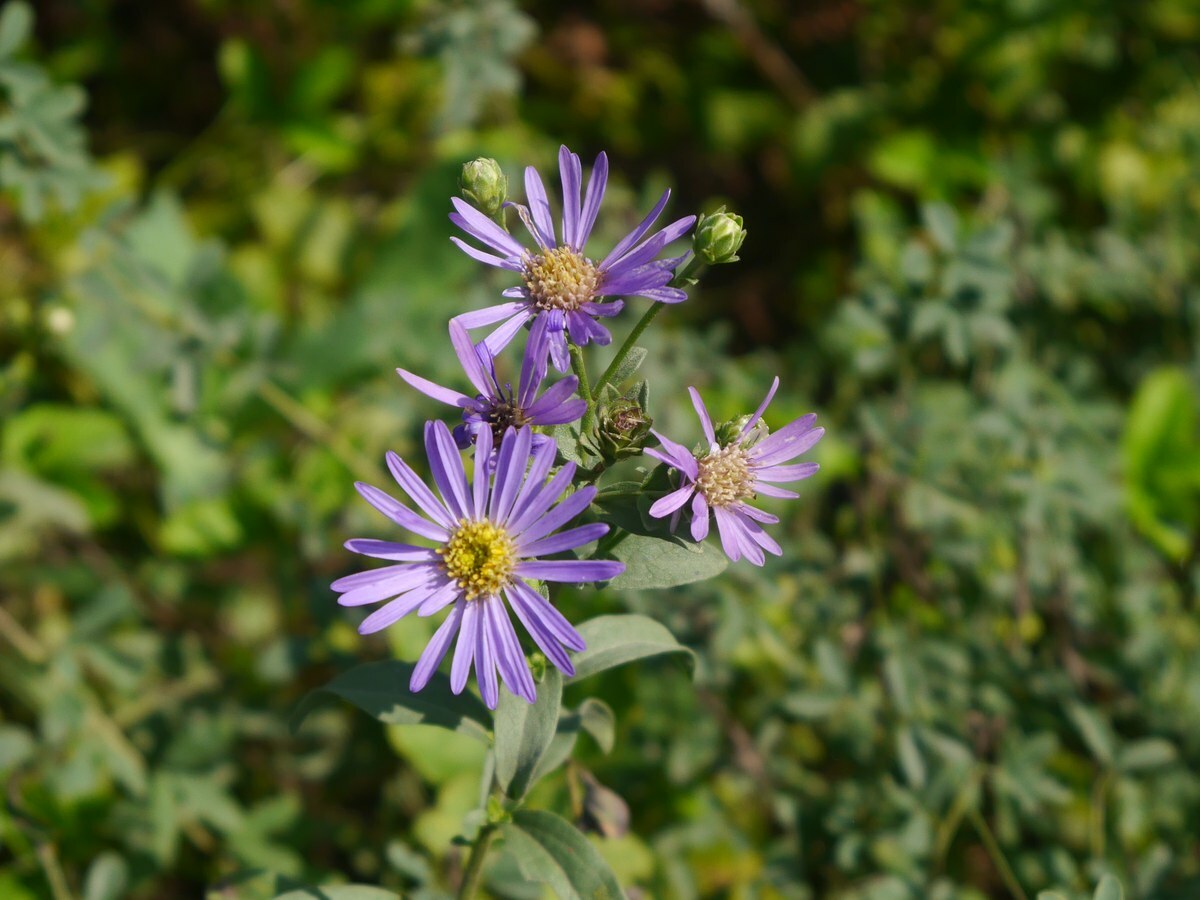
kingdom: Plantae
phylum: Tracheophyta
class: Magnoliopsida
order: Asterales
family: Asteraceae
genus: Aster
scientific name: Aster amellus
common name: European michaelmas daisy
